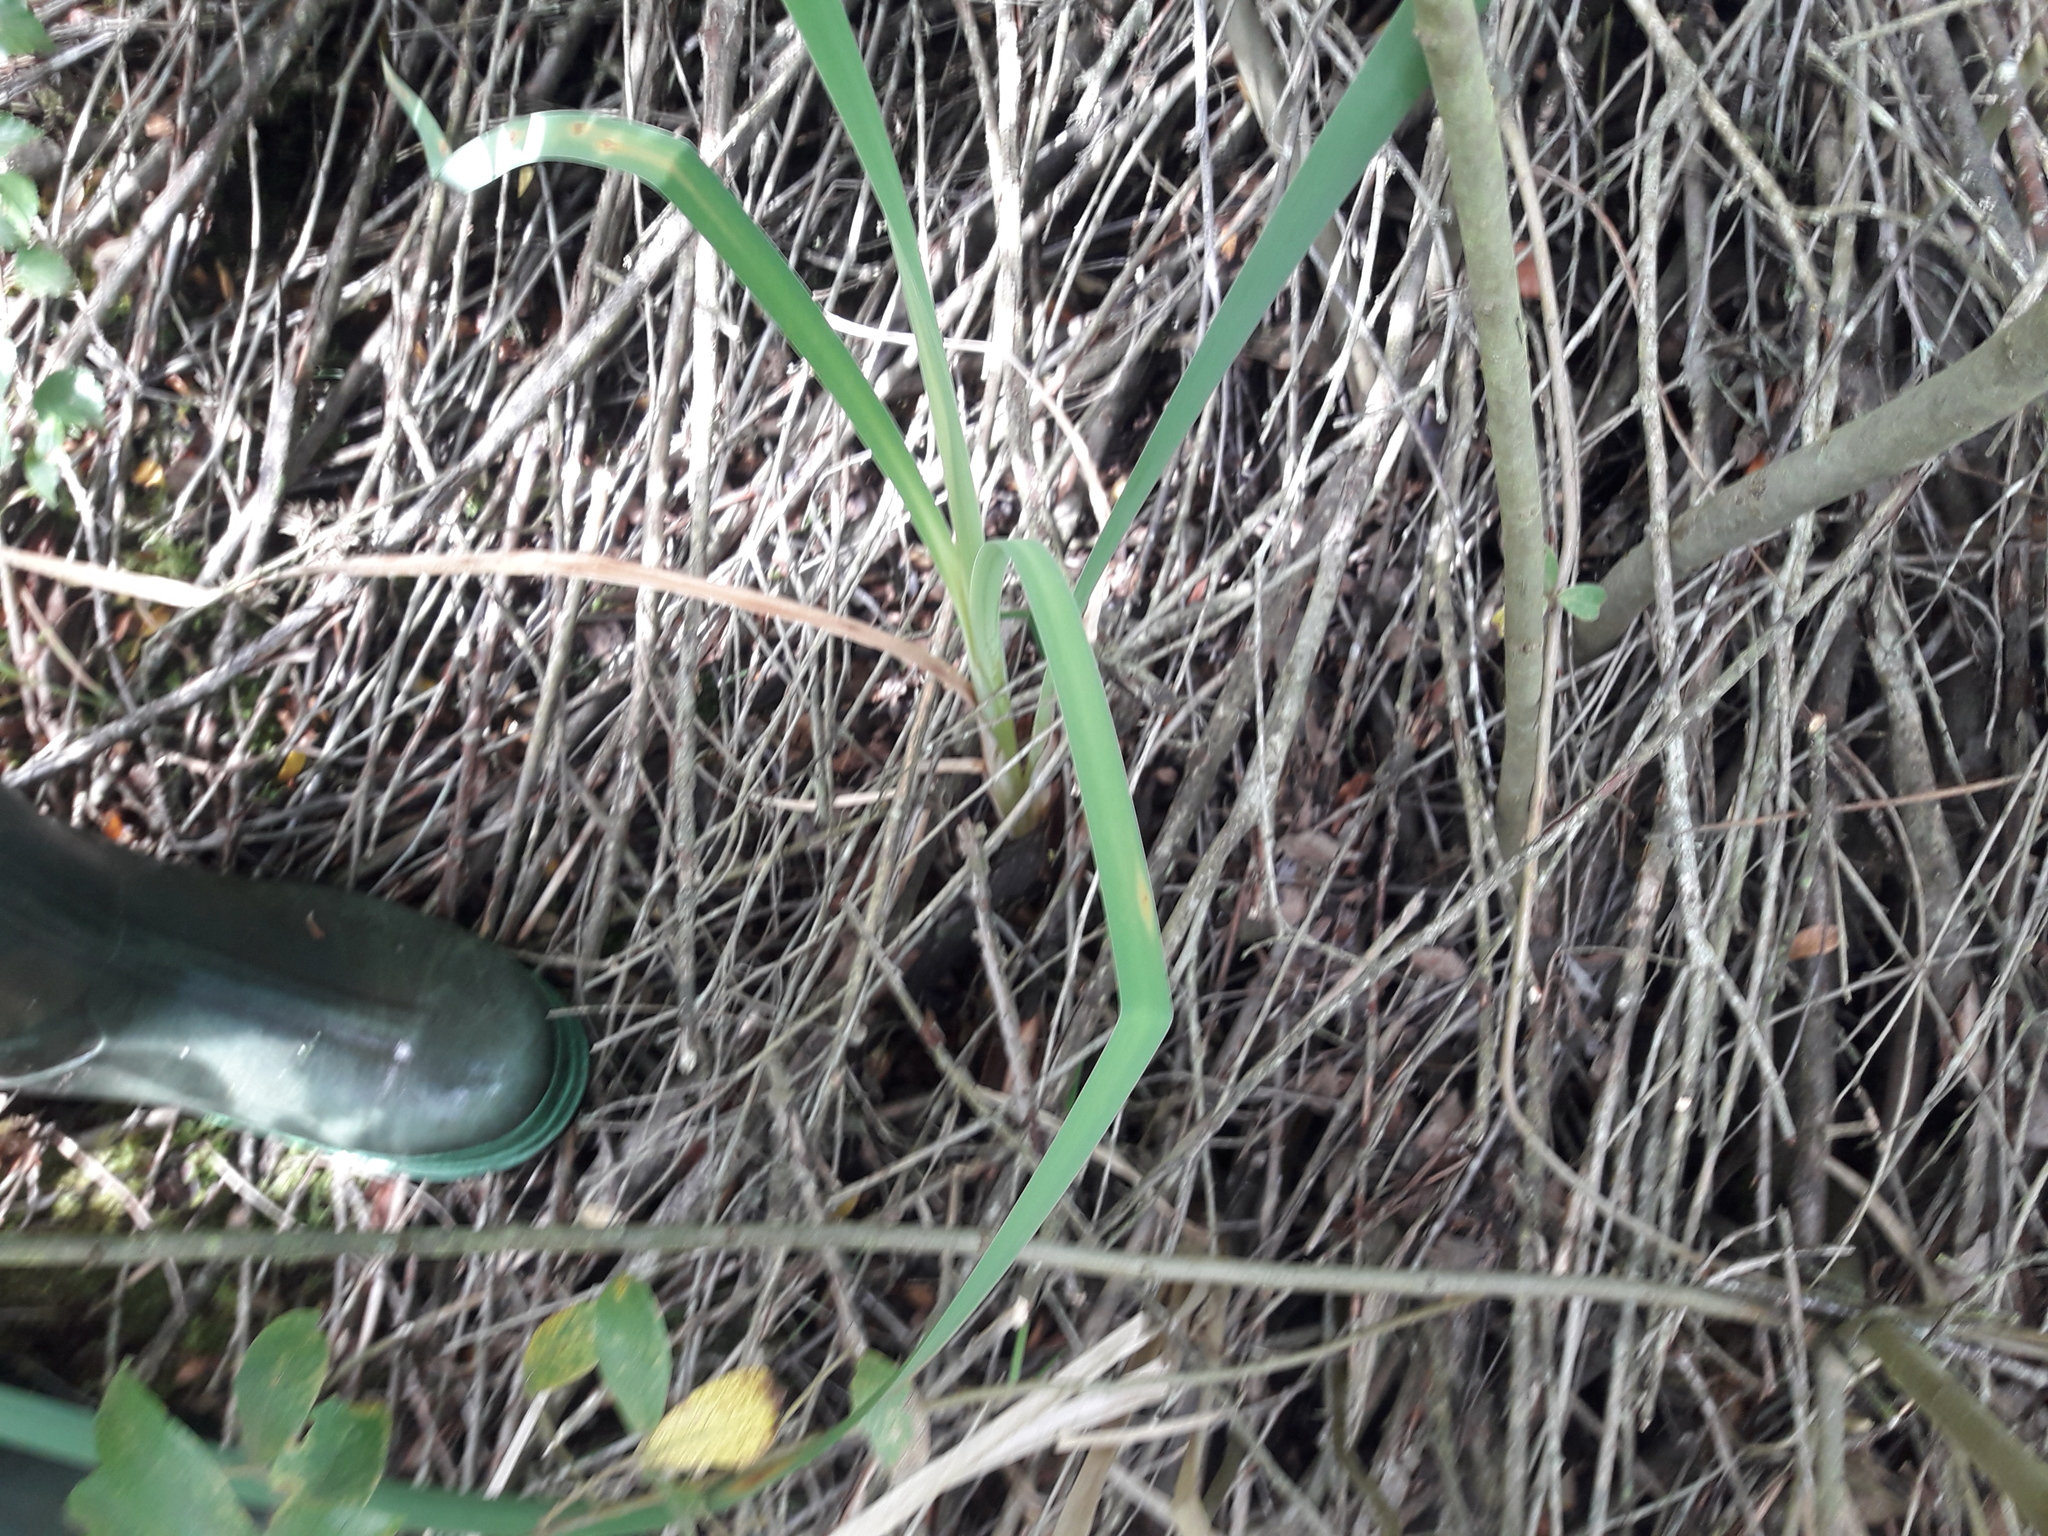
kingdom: Plantae
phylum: Tracheophyta
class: Liliopsida
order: Poales
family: Typhaceae
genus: Typha
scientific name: Typha latifolia
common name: Broadleaf cattail
